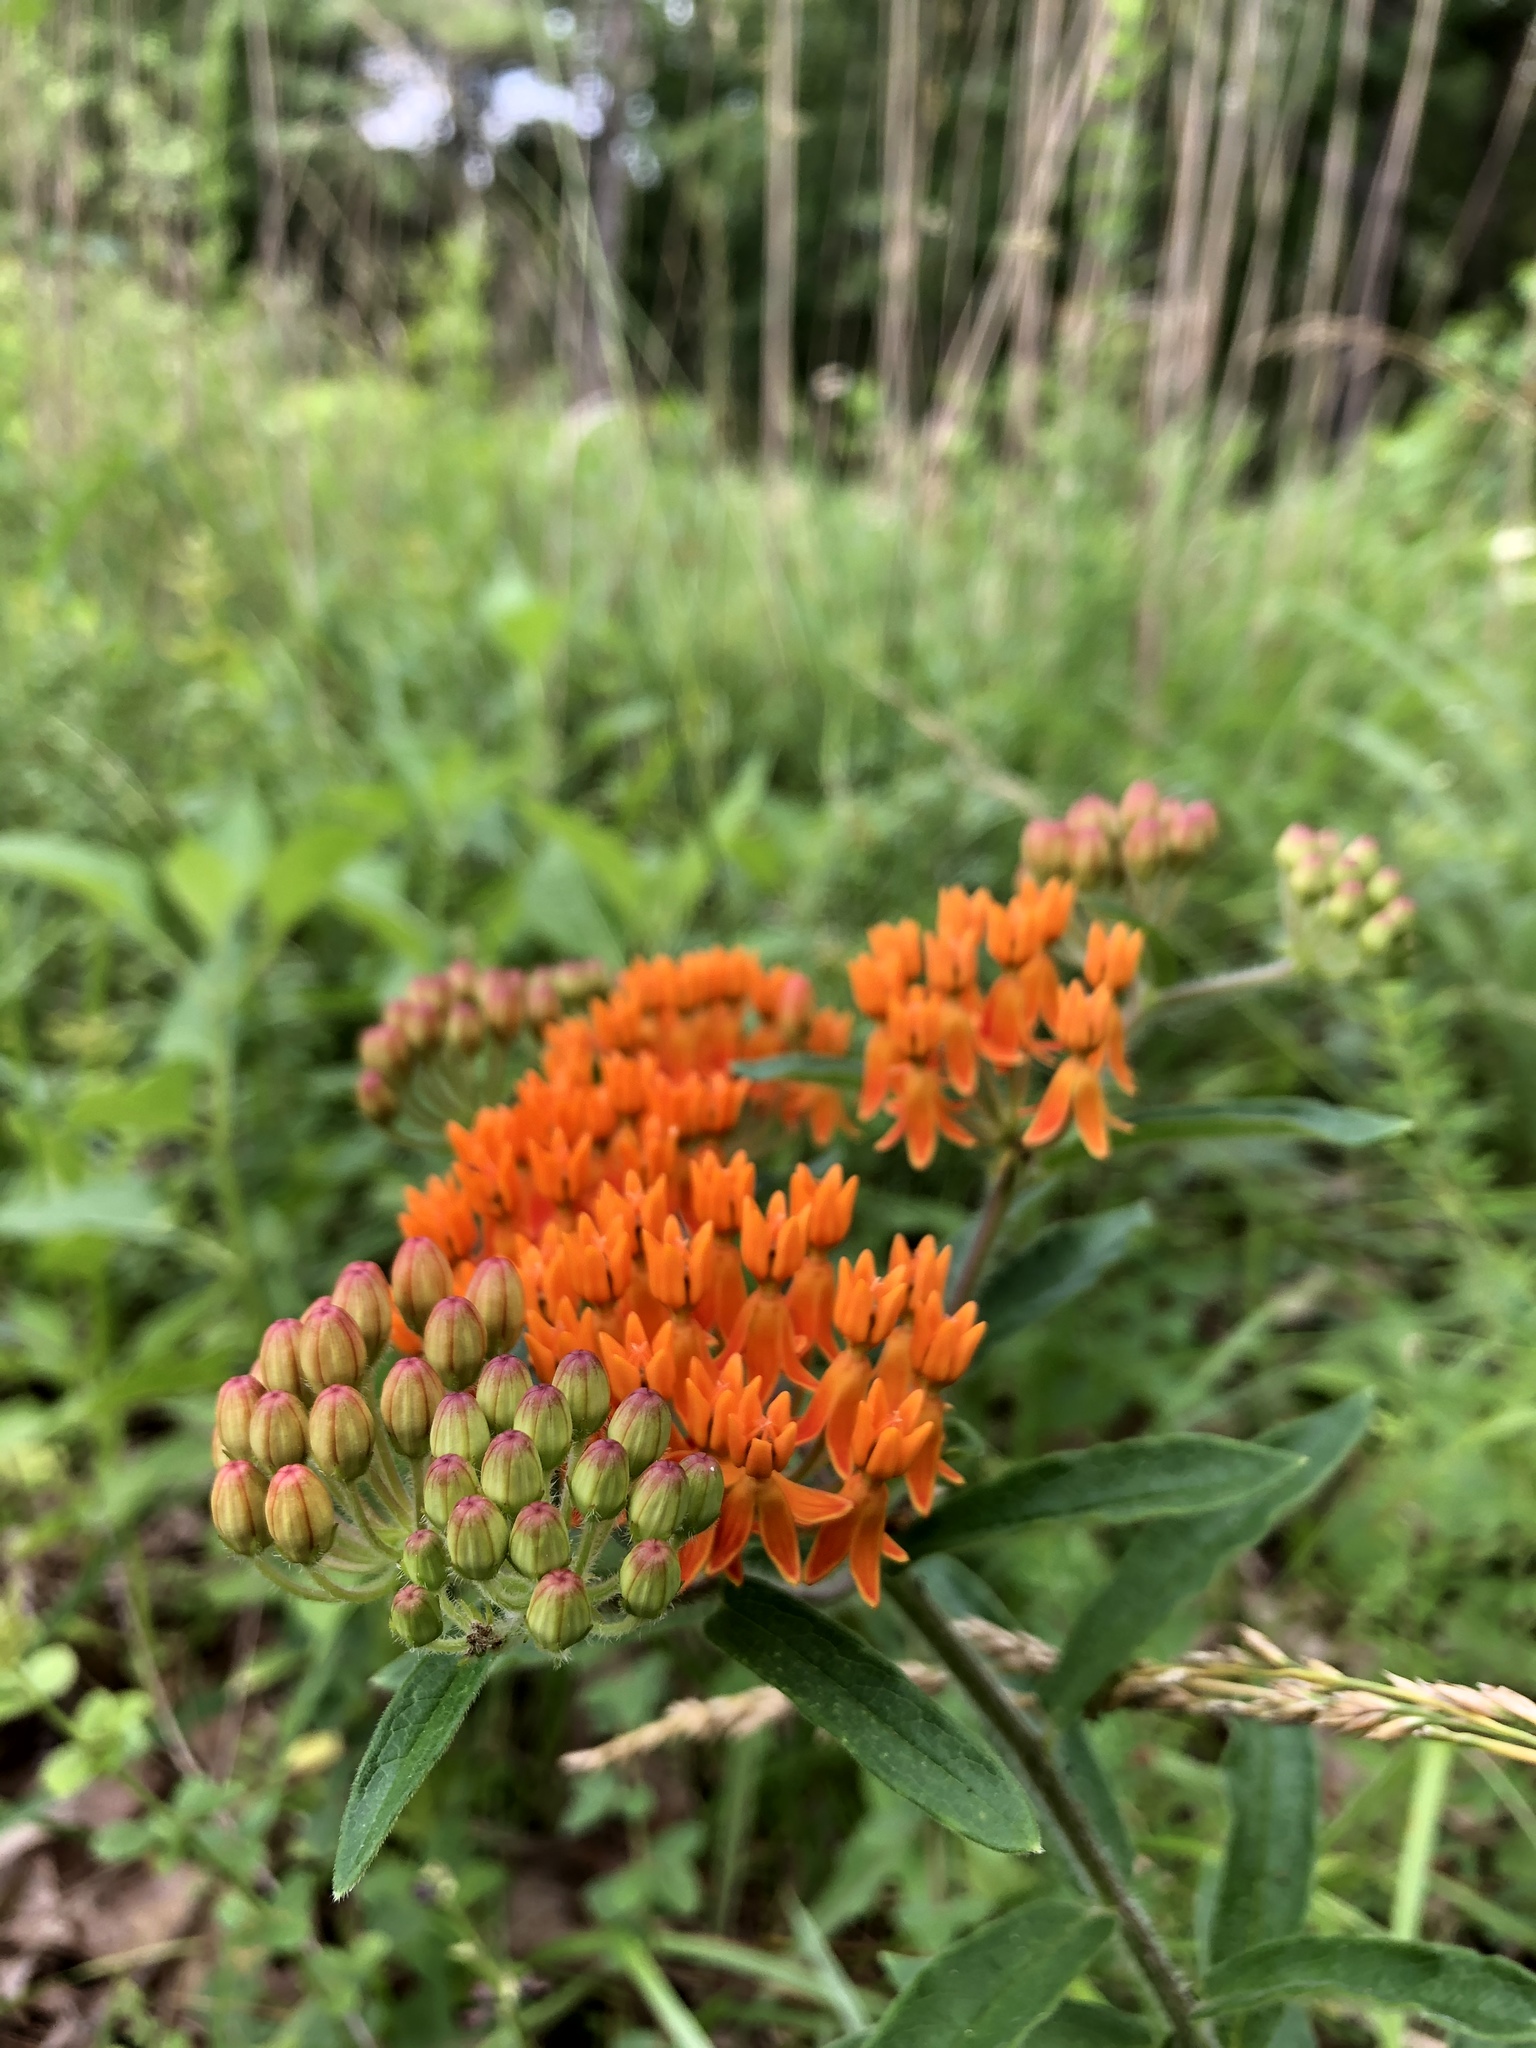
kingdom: Plantae
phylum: Tracheophyta
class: Magnoliopsida
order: Gentianales
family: Apocynaceae
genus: Asclepias
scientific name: Asclepias tuberosa
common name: Butterfly milkweed
